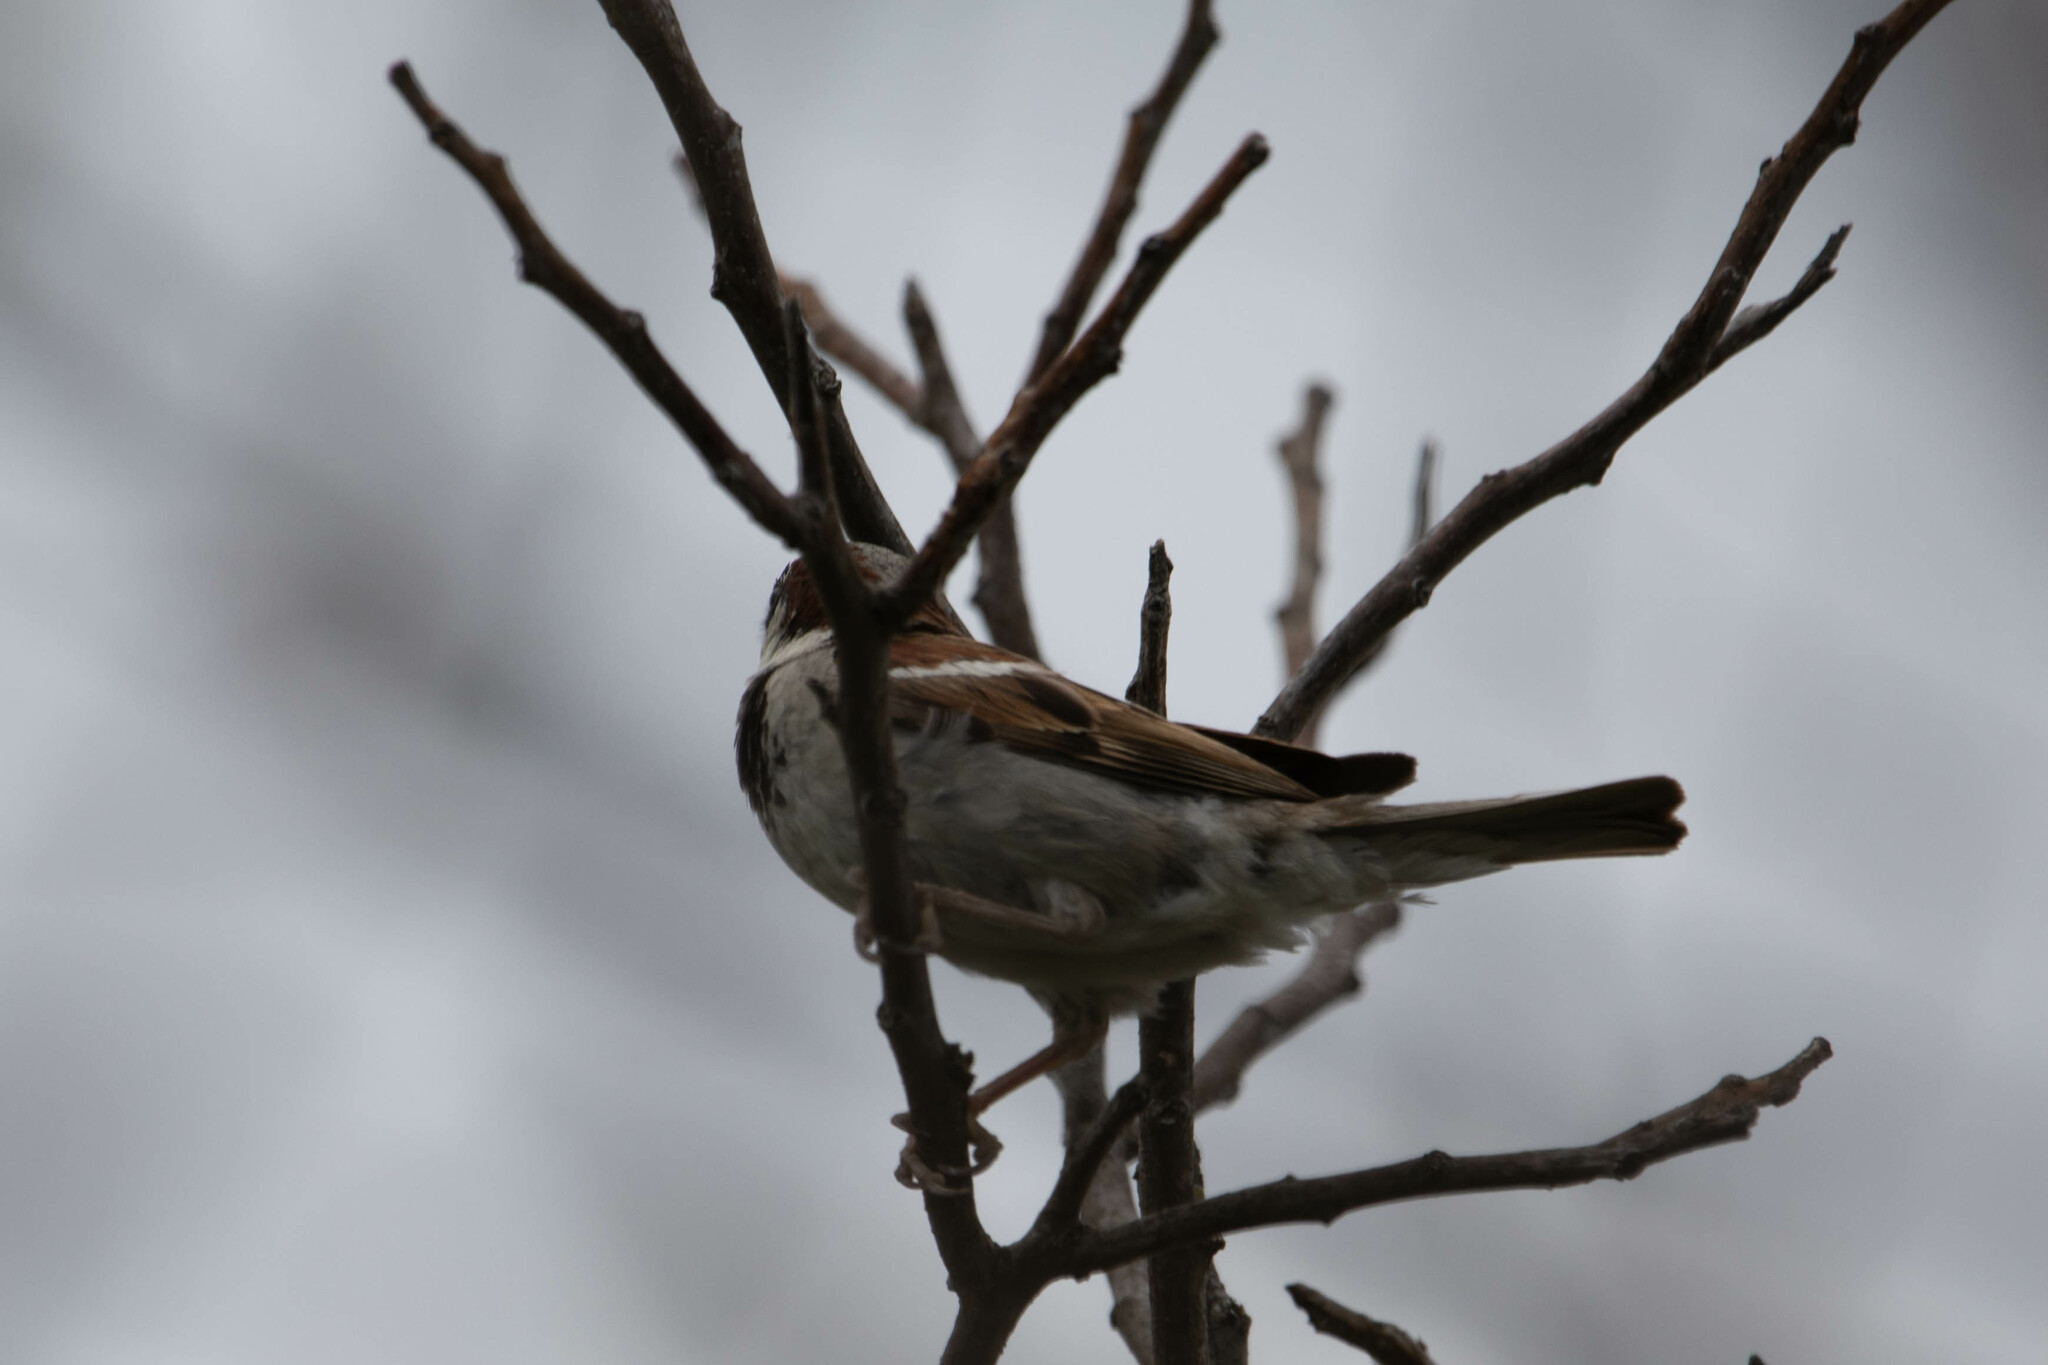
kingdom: Animalia
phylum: Chordata
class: Aves
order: Passeriformes
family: Passeridae
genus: Passer
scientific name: Passer domesticus
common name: House sparrow
